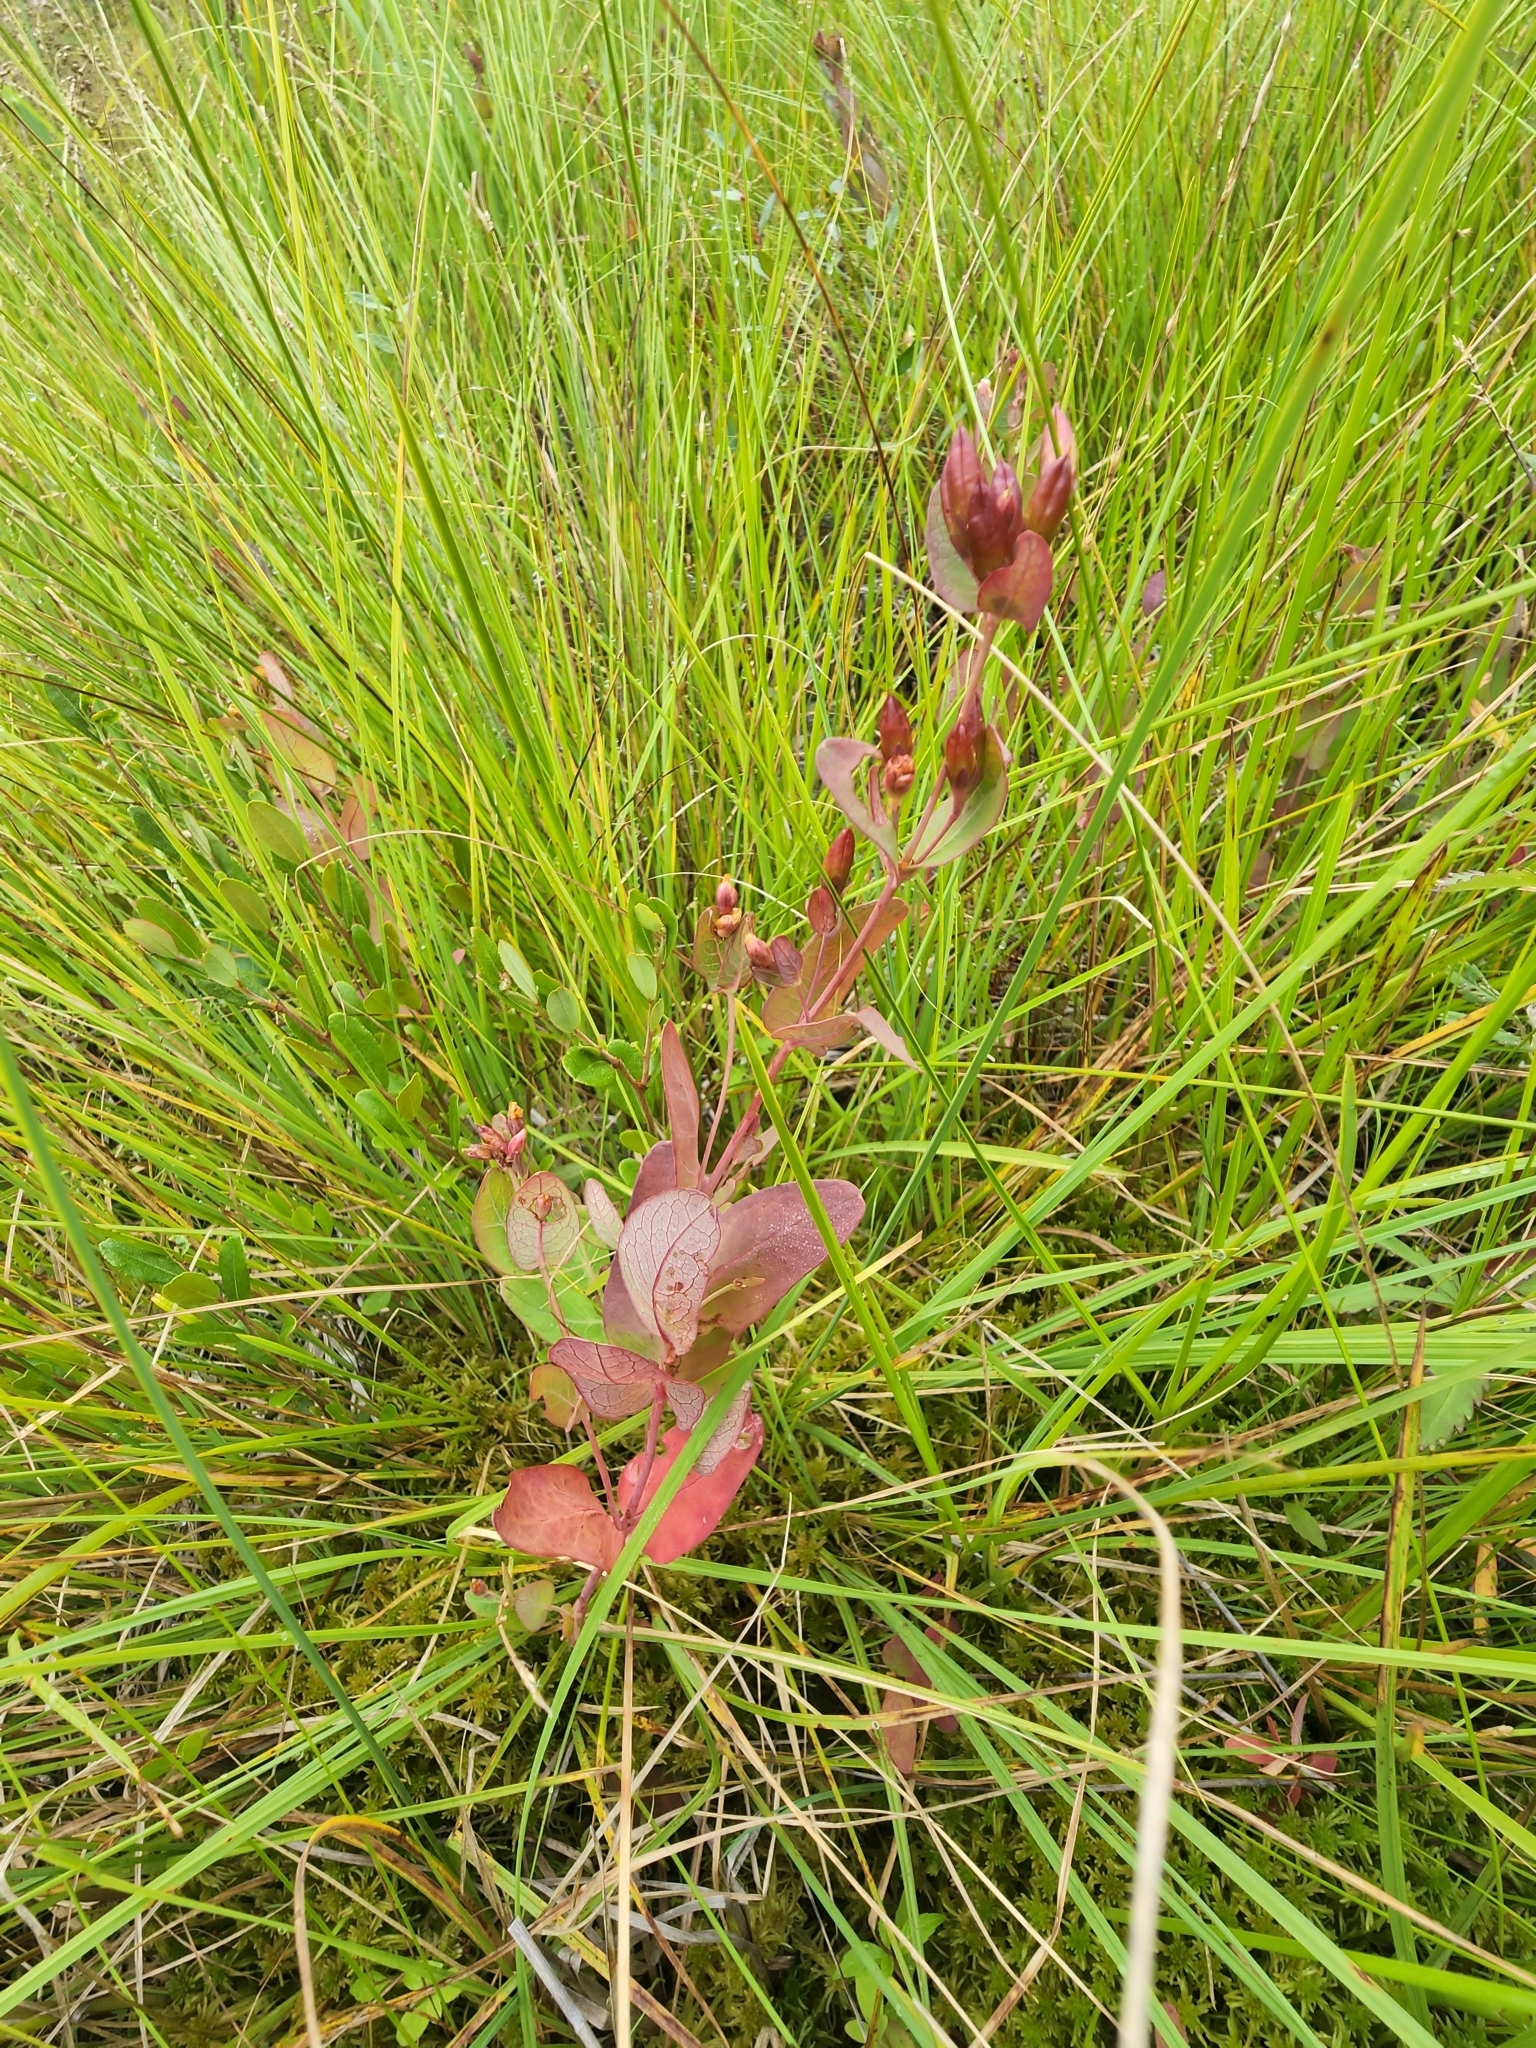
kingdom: Plantae
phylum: Tracheophyta
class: Magnoliopsida
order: Malpighiales
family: Hypericaceae
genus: Triadenum
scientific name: Triadenum fraseri
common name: Fraser's marsh st. johnswort
